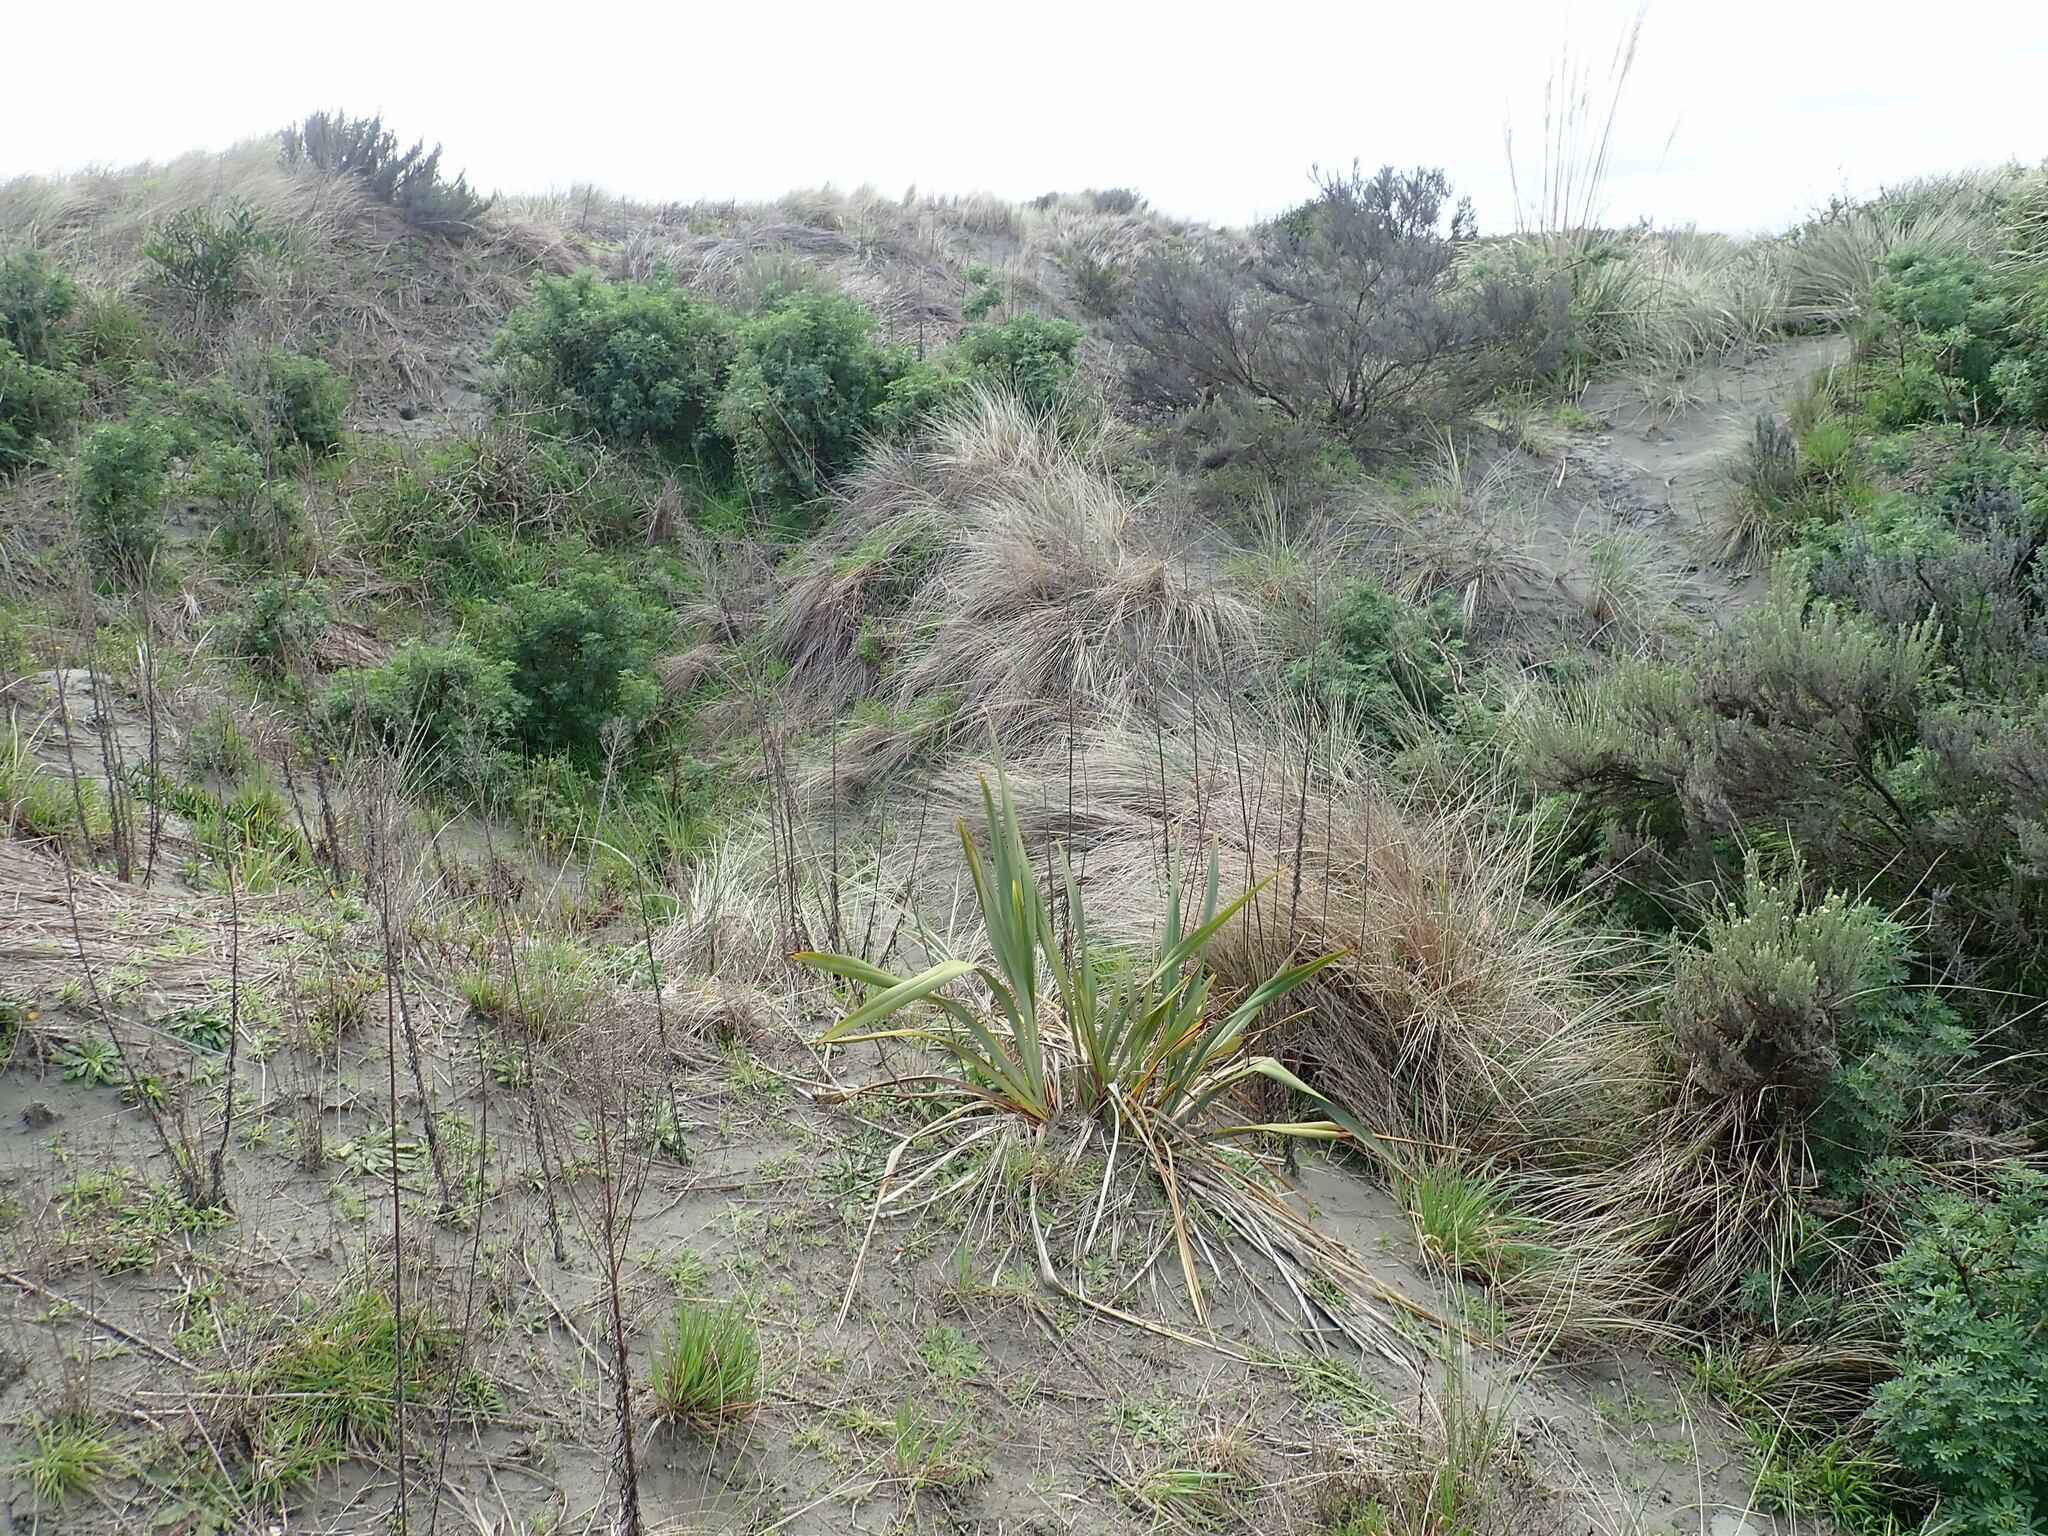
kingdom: Plantae
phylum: Tracheophyta
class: Liliopsida
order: Asparagales
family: Asphodelaceae
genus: Phormium
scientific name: Phormium tenax
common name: New zealand flax
